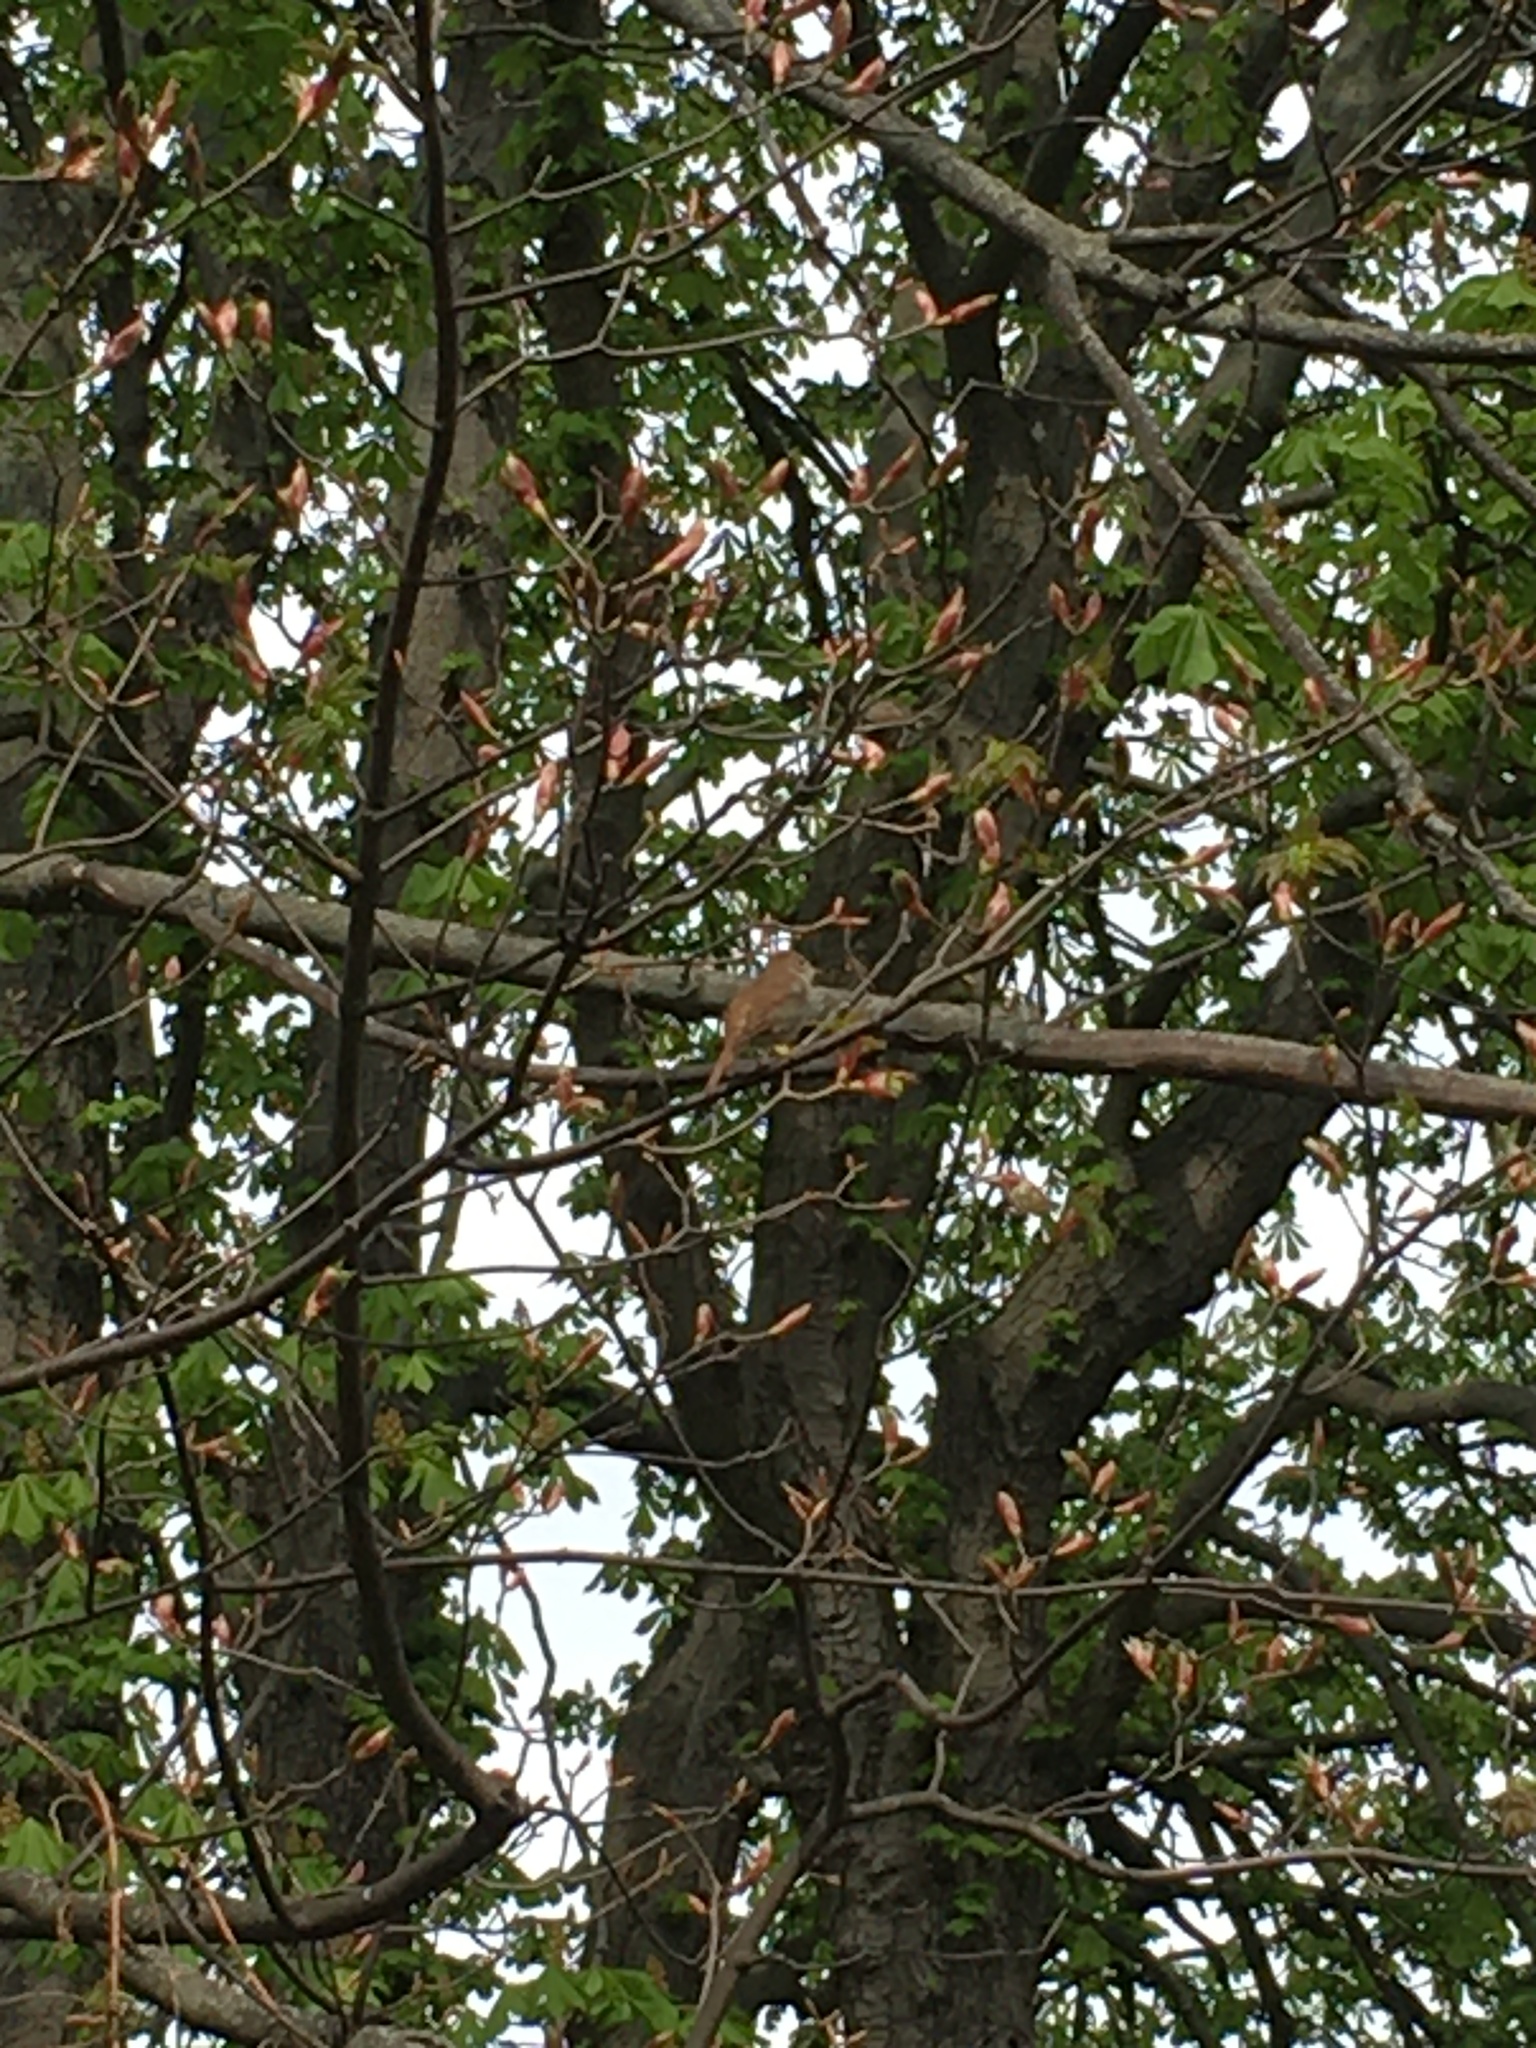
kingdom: Animalia
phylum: Chordata
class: Aves
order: Passeriformes
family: Muscicapidae
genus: Luscinia
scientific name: Luscinia megarhynchos
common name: Common nightingale
